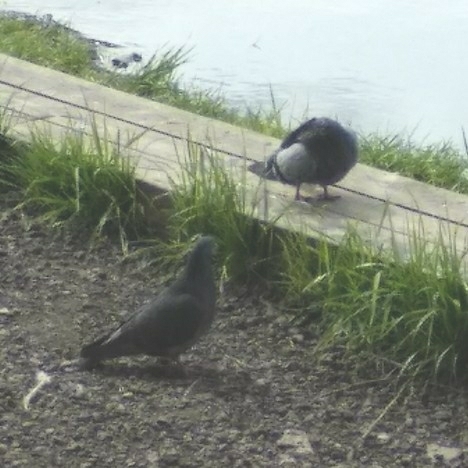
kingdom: Animalia
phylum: Chordata
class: Aves
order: Columbiformes
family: Columbidae
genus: Columba
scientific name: Columba livia
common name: Rock pigeon
